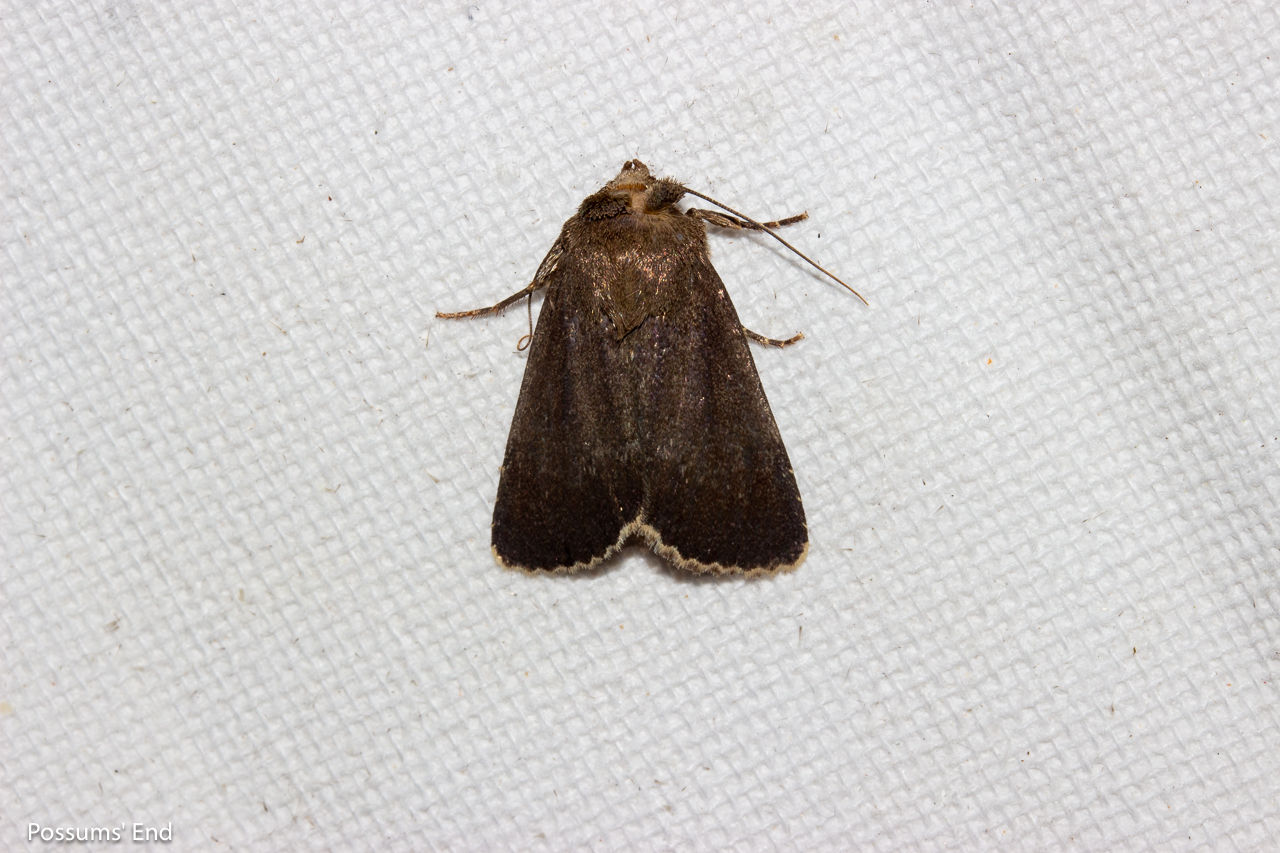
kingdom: Animalia
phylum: Arthropoda
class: Insecta
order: Lepidoptera
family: Noctuidae
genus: Bityla
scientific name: Bityla sericea
